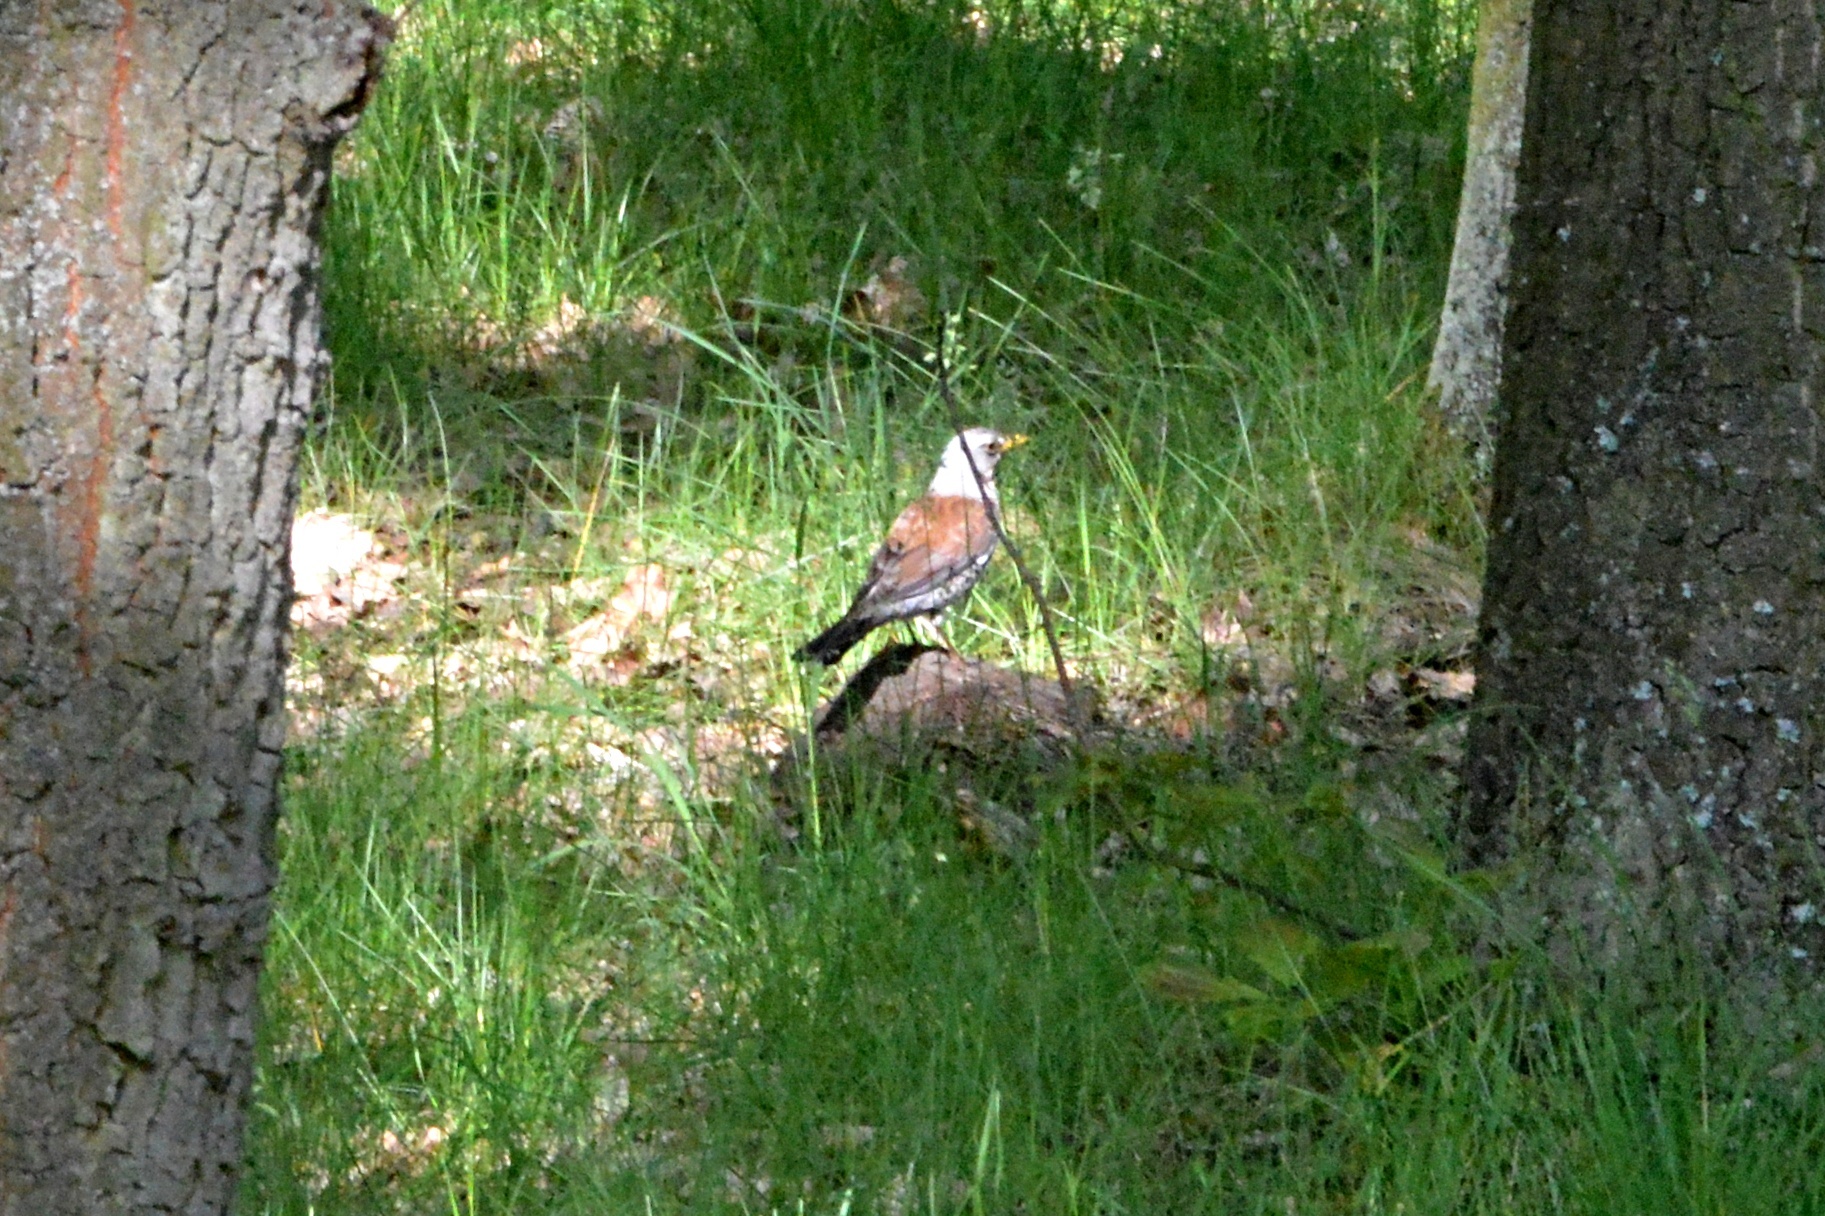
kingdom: Animalia
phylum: Chordata
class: Aves
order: Passeriformes
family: Turdidae
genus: Turdus
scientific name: Turdus pilaris
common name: Fieldfare
